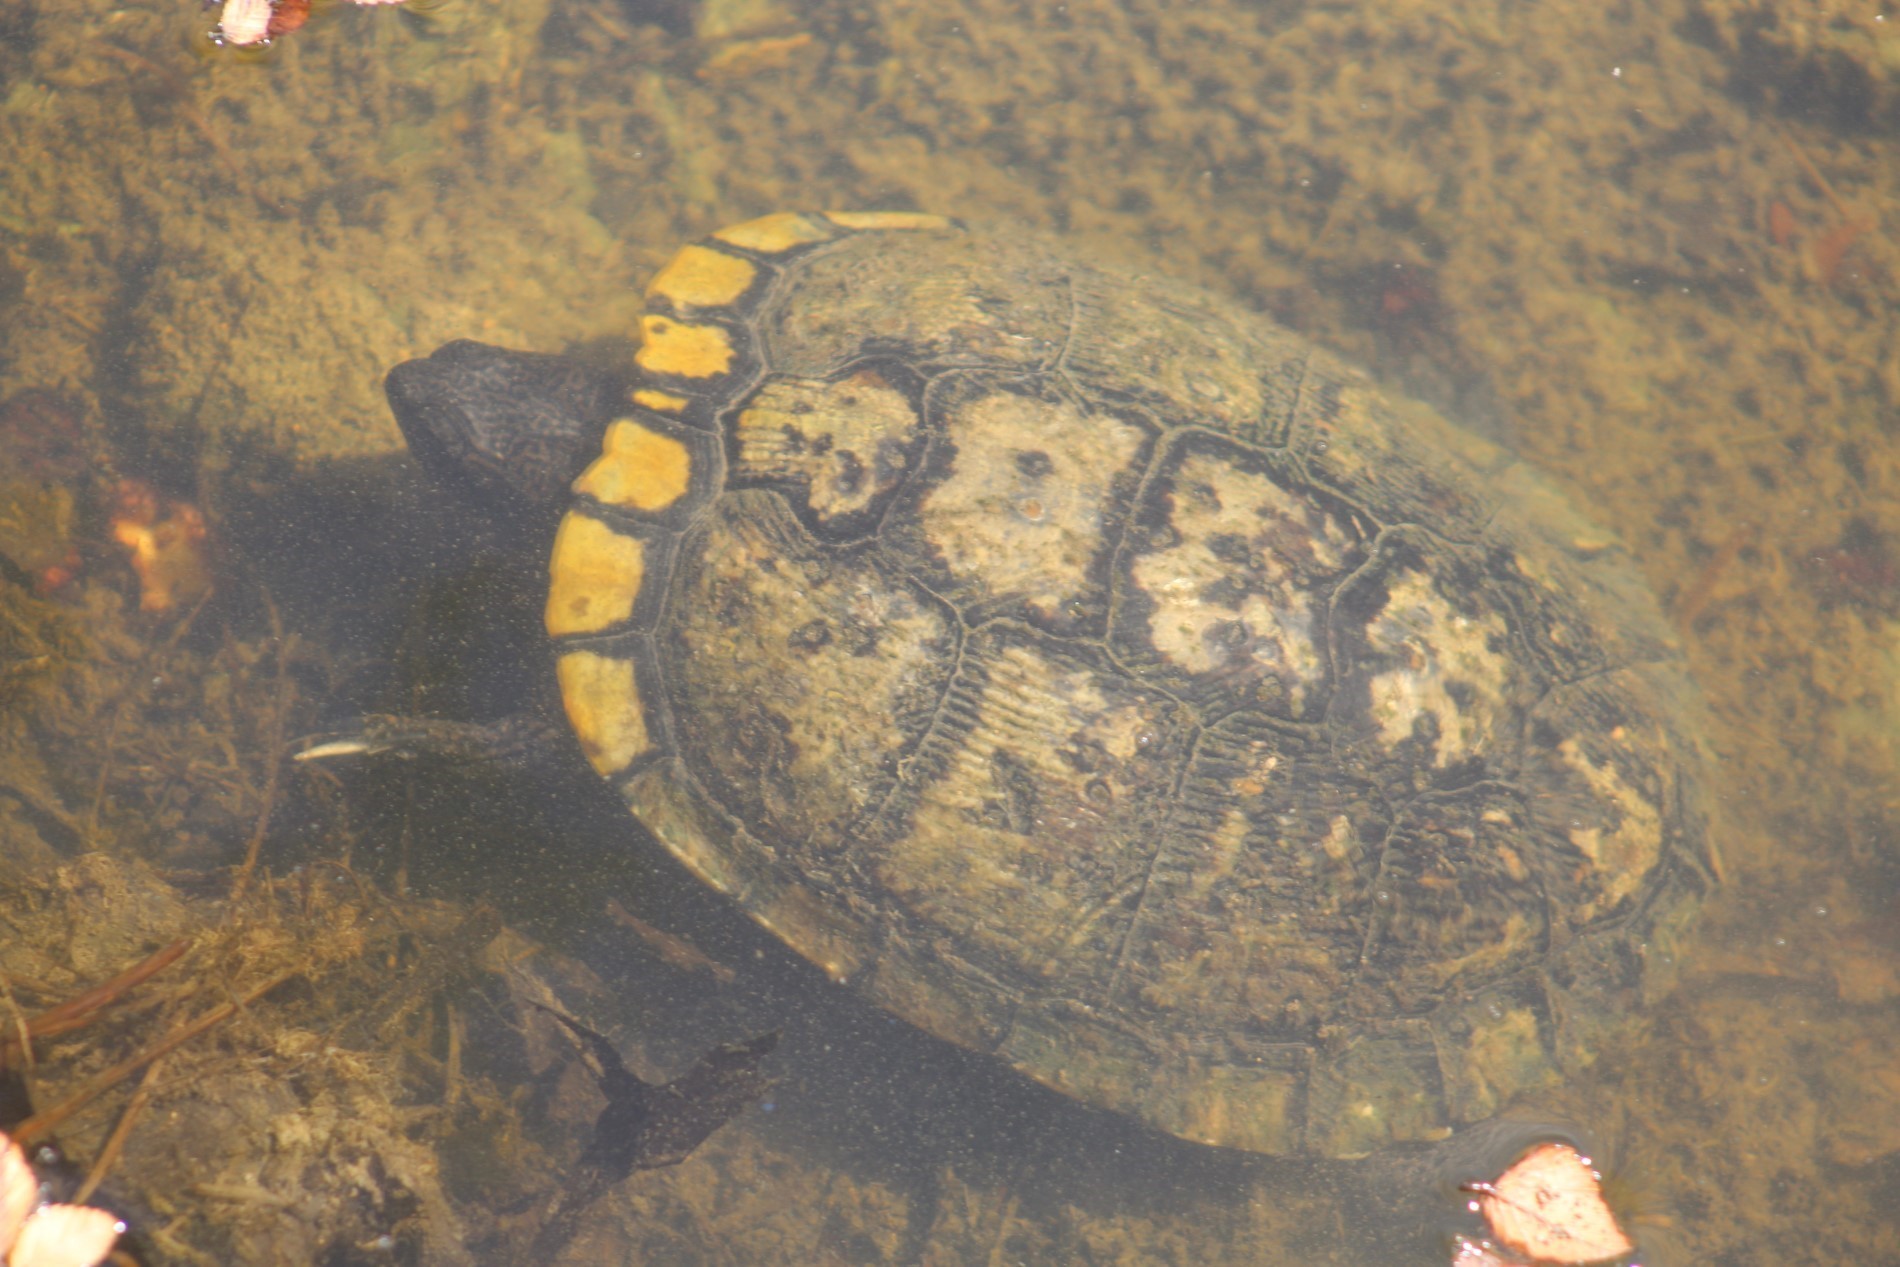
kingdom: Animalia
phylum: Chordata
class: Testudines
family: Emydidae
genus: Trachemys
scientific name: Trachemys scripta
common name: Slider
